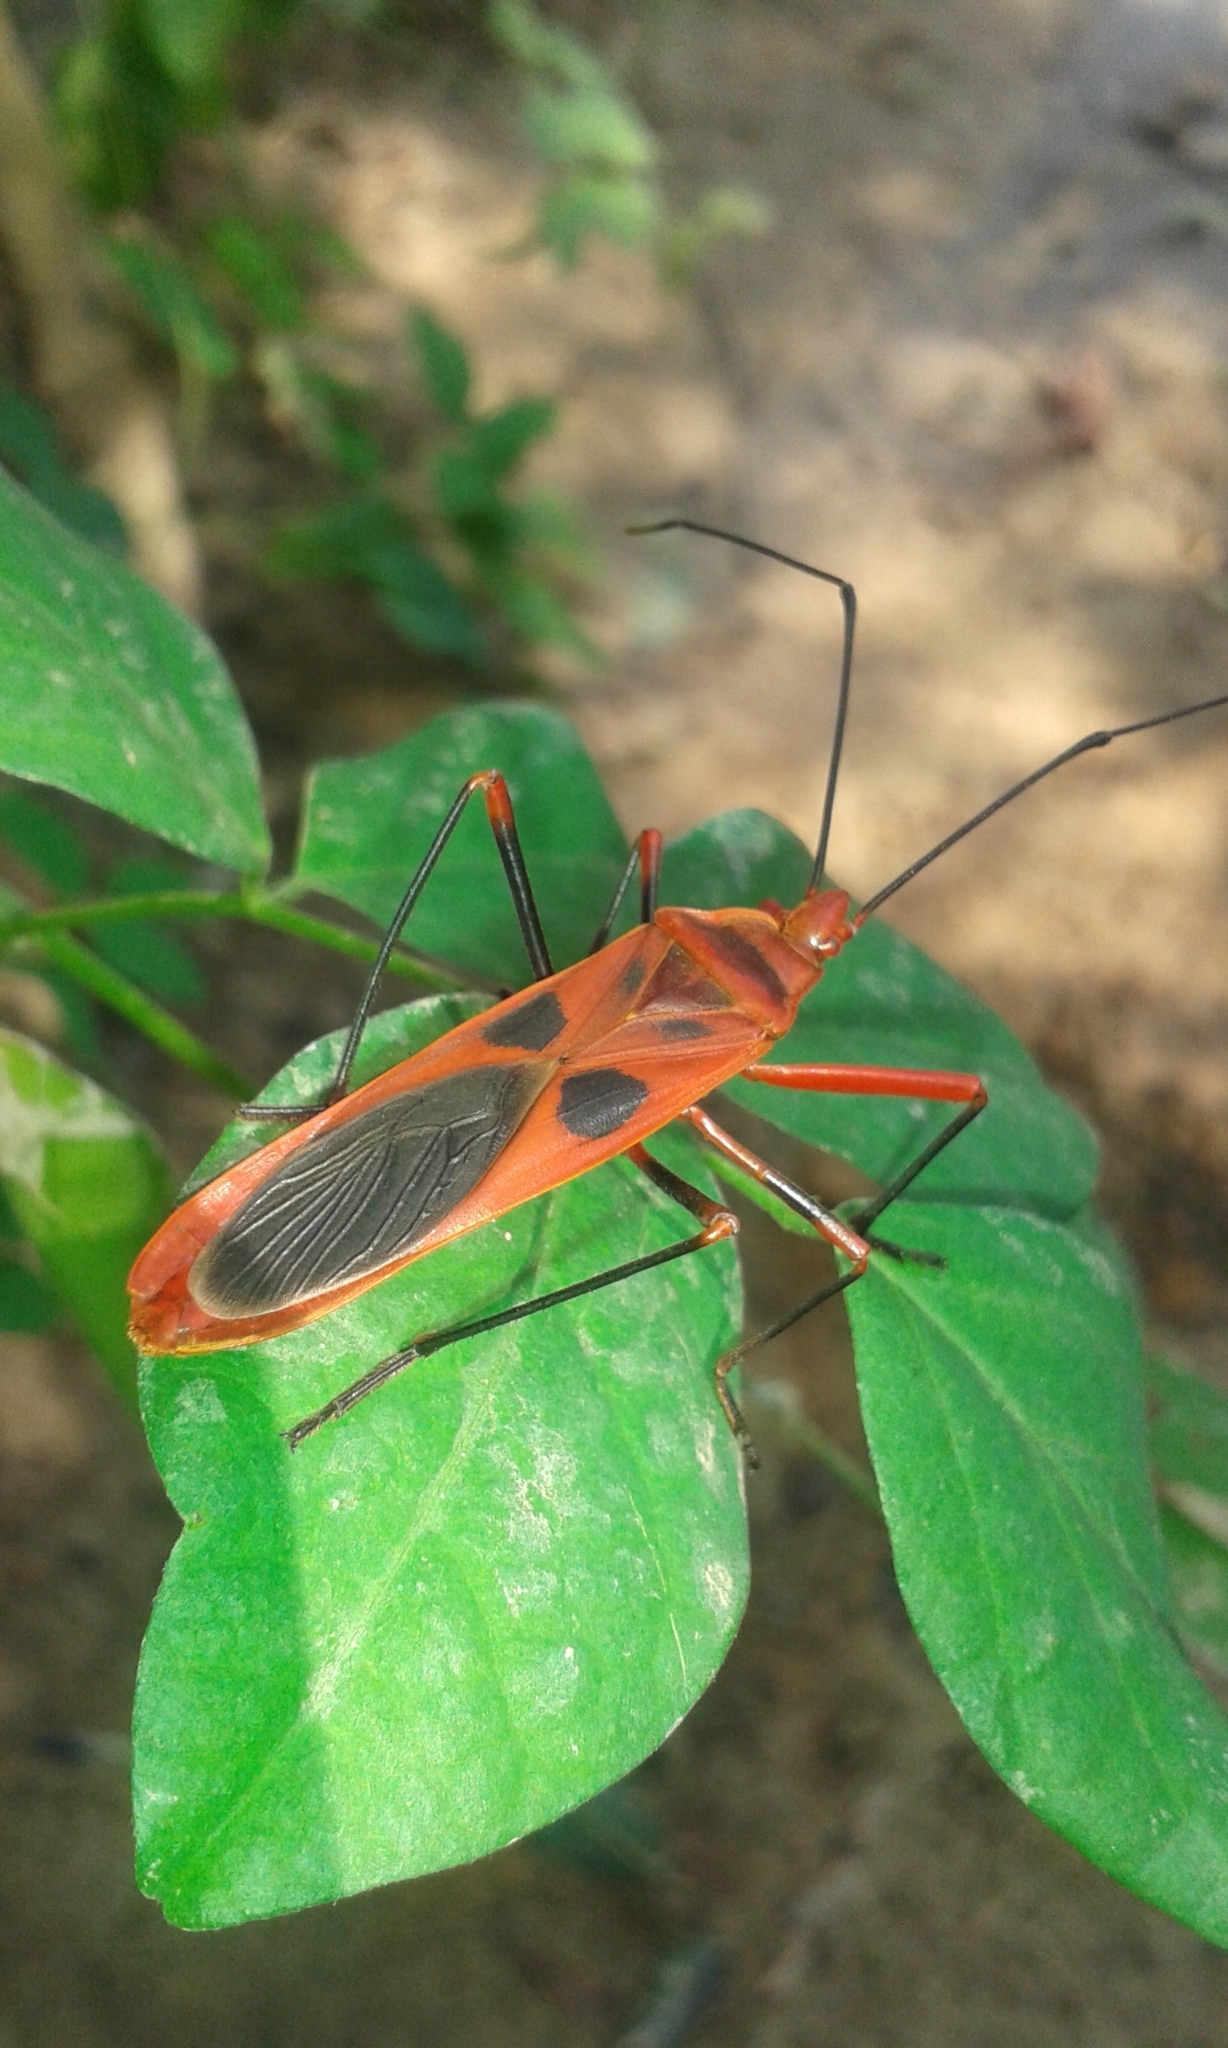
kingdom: Animalia
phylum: Arthropoda
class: Insecta
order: Hemiptera
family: Largidae
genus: Macrocheraia
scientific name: Macrocheraia grandis
